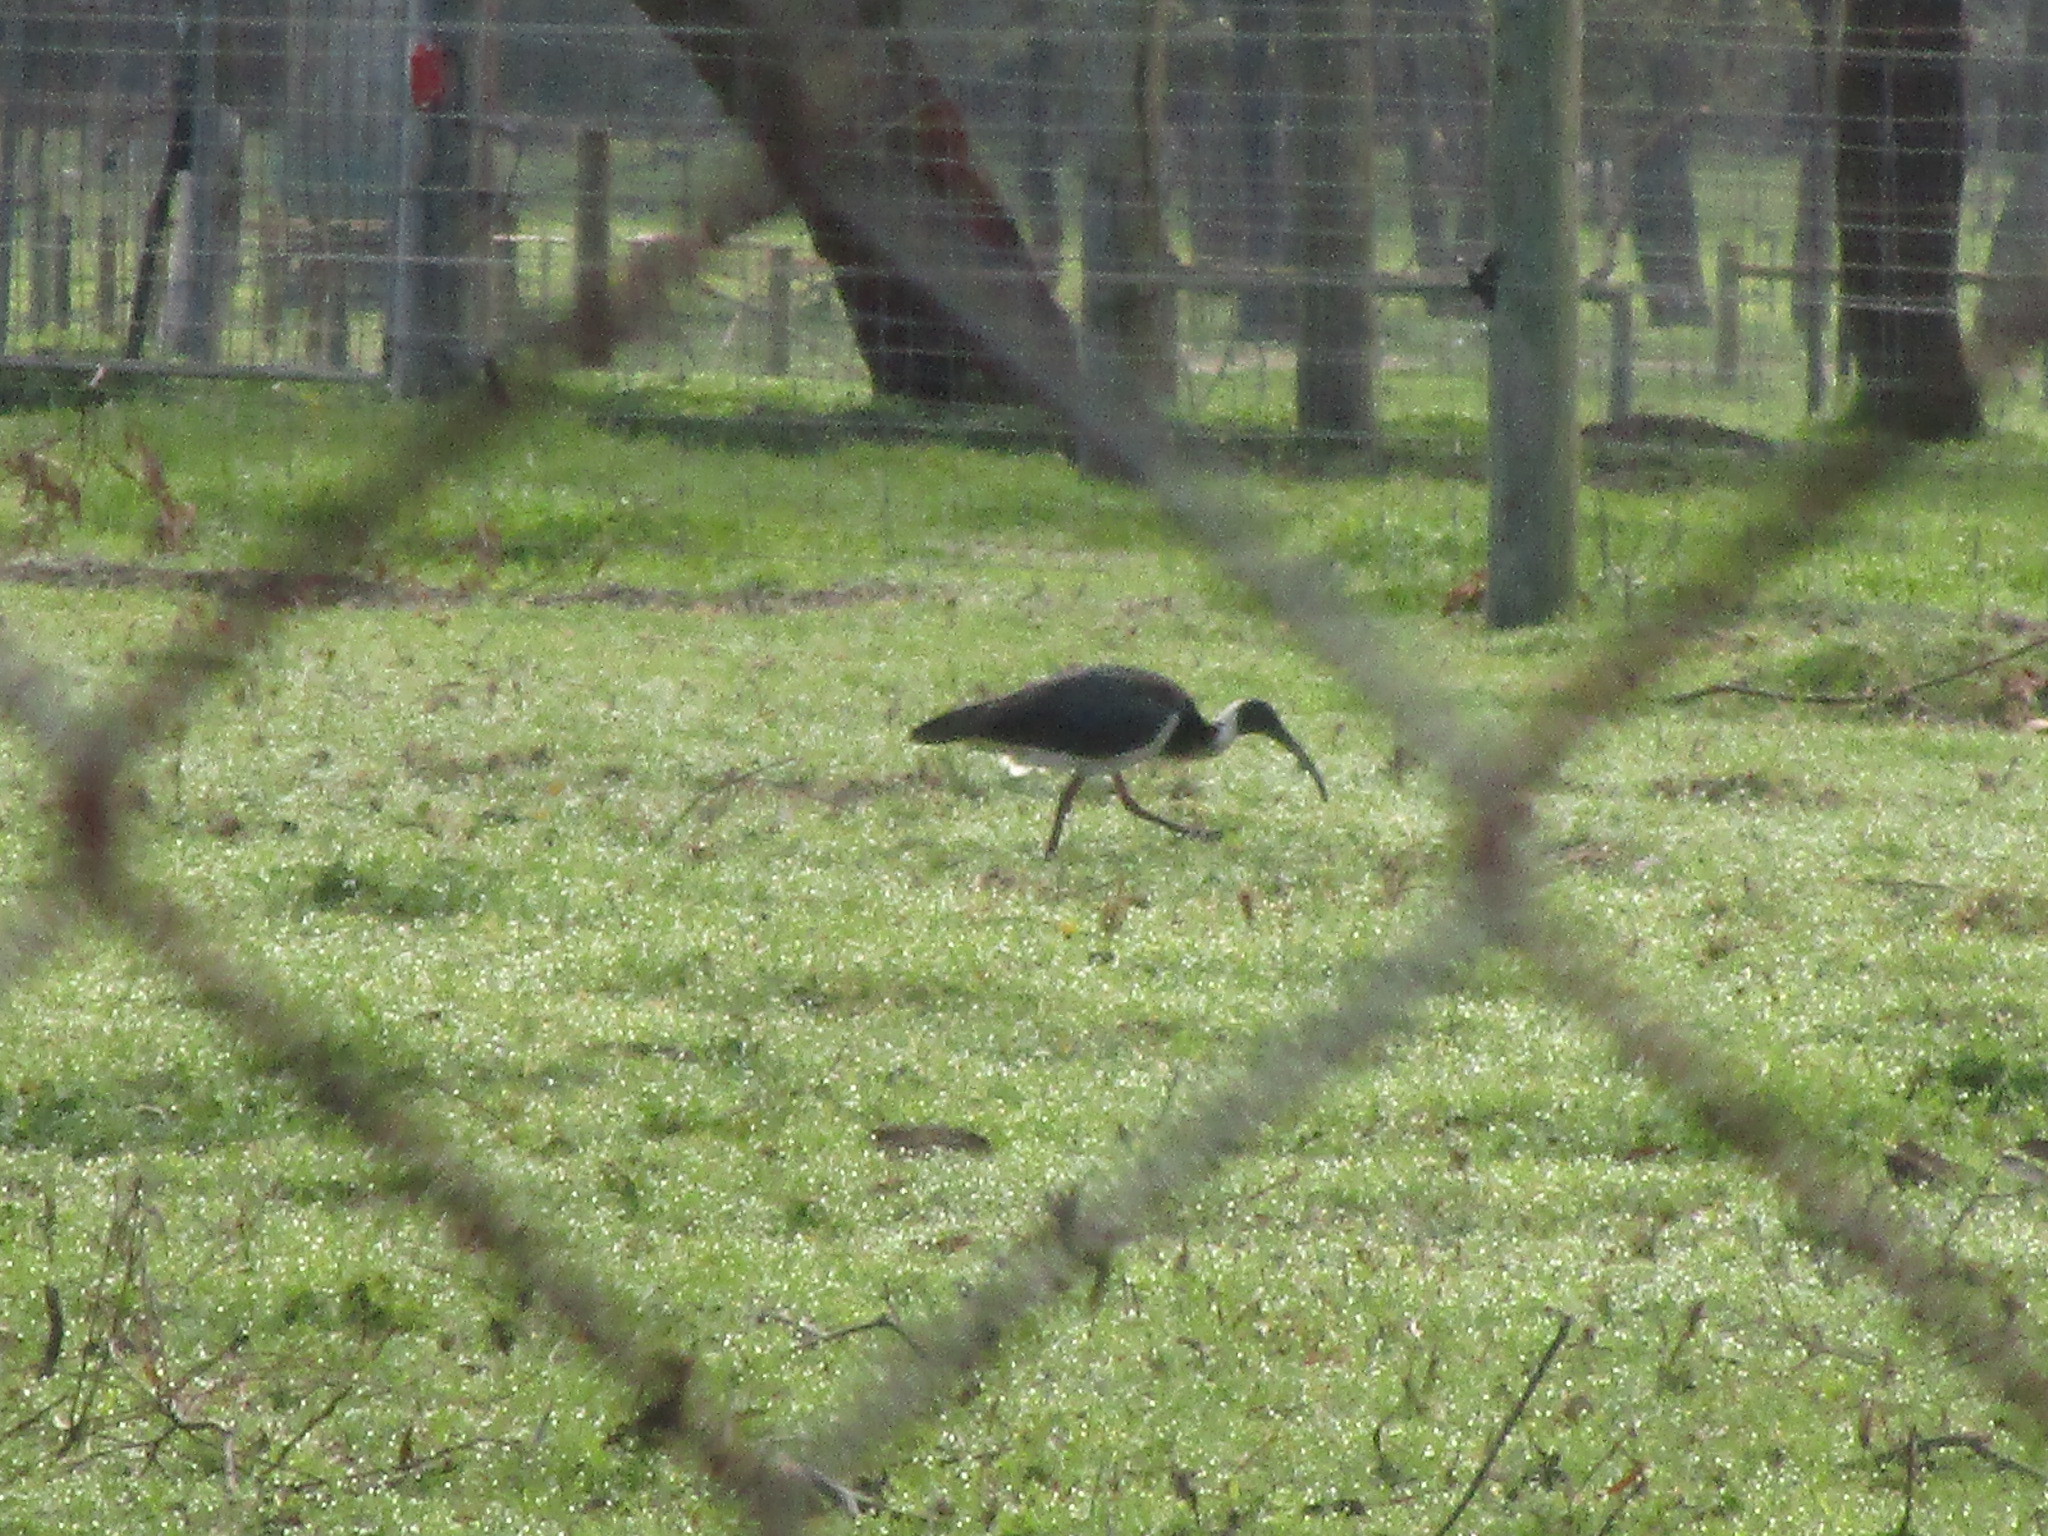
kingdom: Animalia
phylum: Chordata
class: Aves
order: Pelecaniformes
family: Threskiornithidae
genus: Threskiornis
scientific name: Threskiornis spinicollis
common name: Straw-necked ibis
